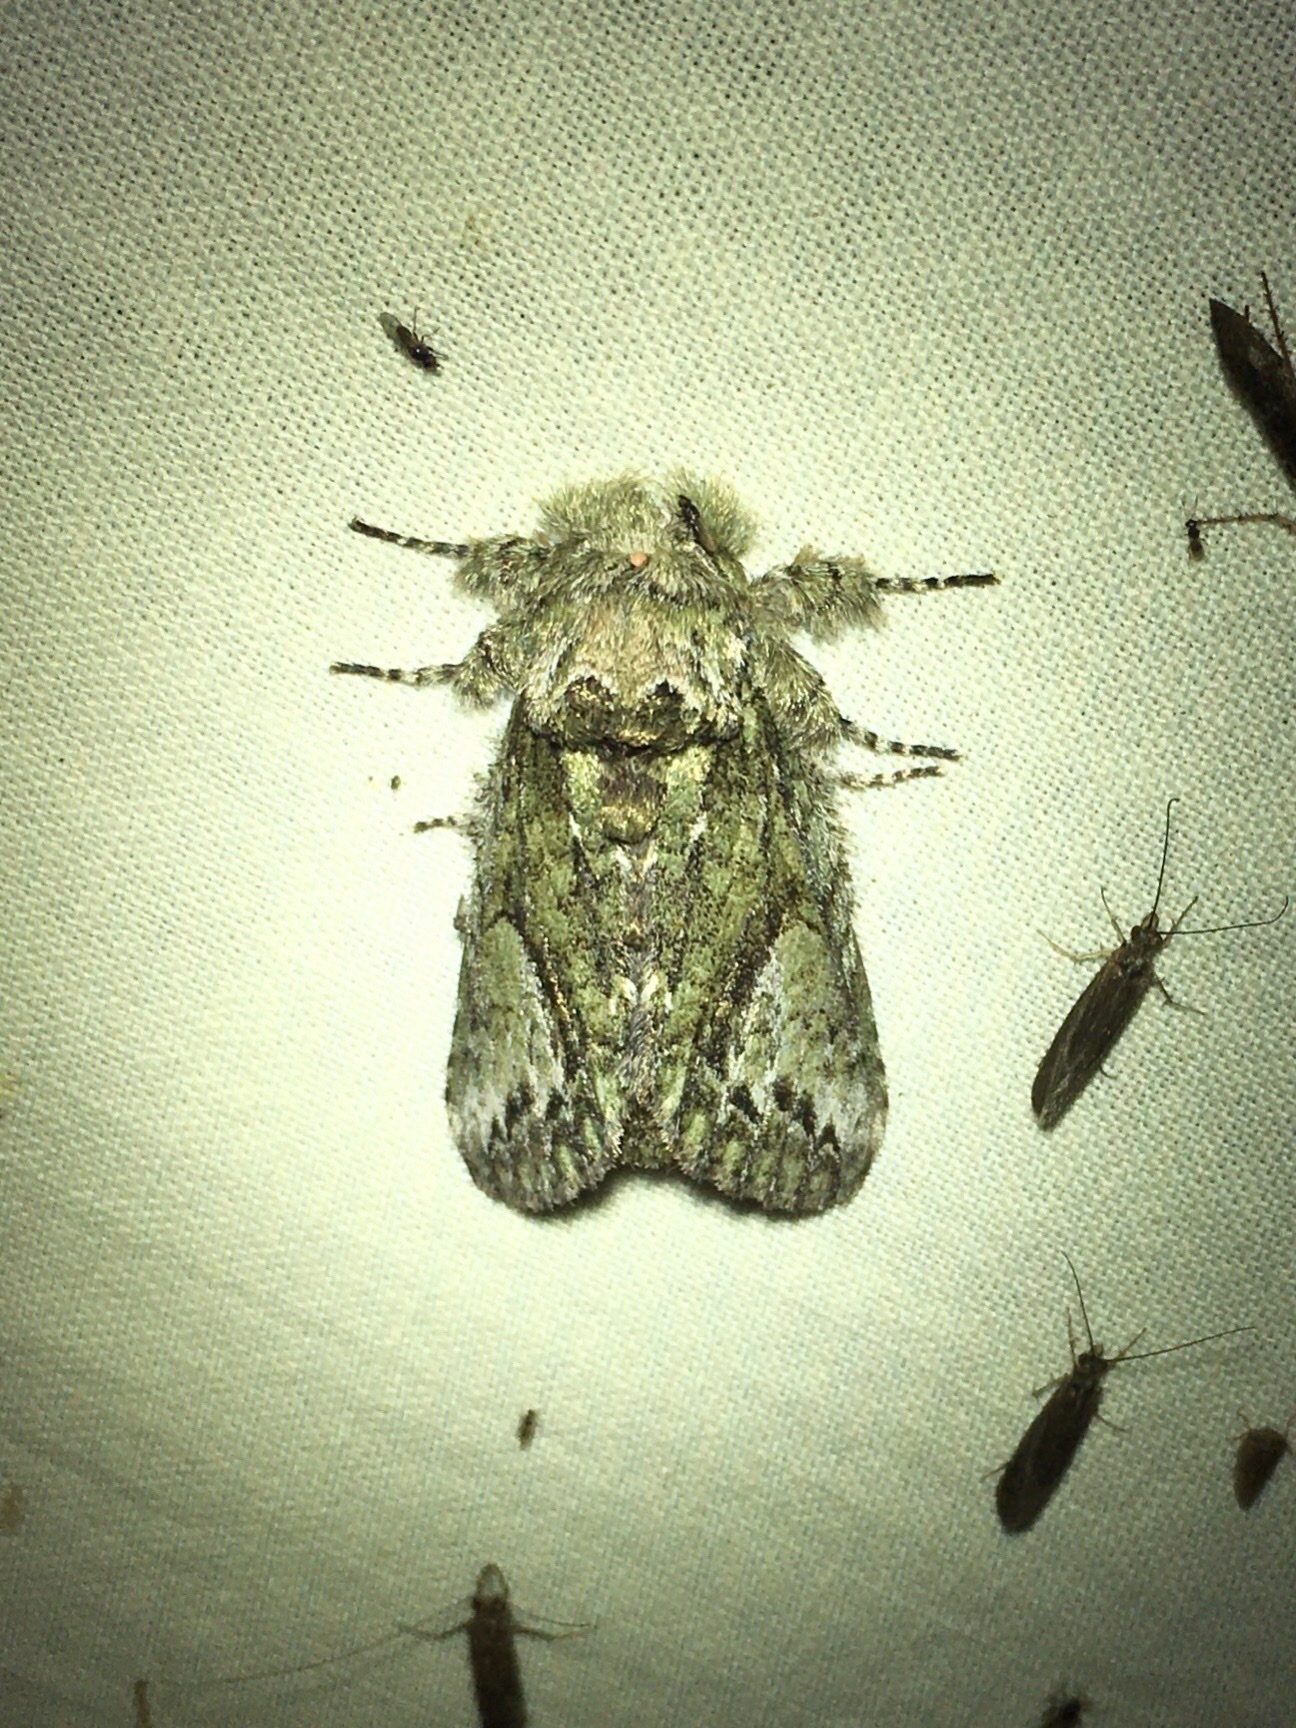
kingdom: Animalia
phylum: Arthropoda
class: Insecta
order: Lepidoptera
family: Notodontidae
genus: Heterocampa
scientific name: Heterocampa
